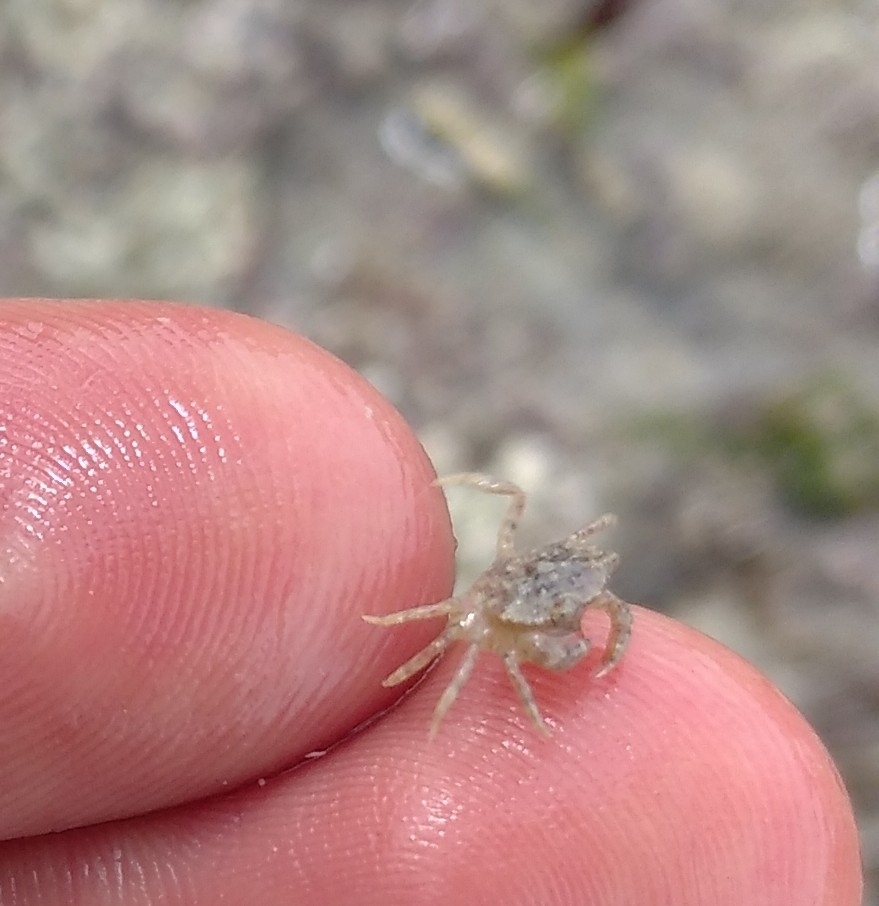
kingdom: Animalia
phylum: Arthropoda
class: Malacostraca
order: Decapoda
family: Carcinidae
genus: Carcinus
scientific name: Carcinus maenas
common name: European green crab
